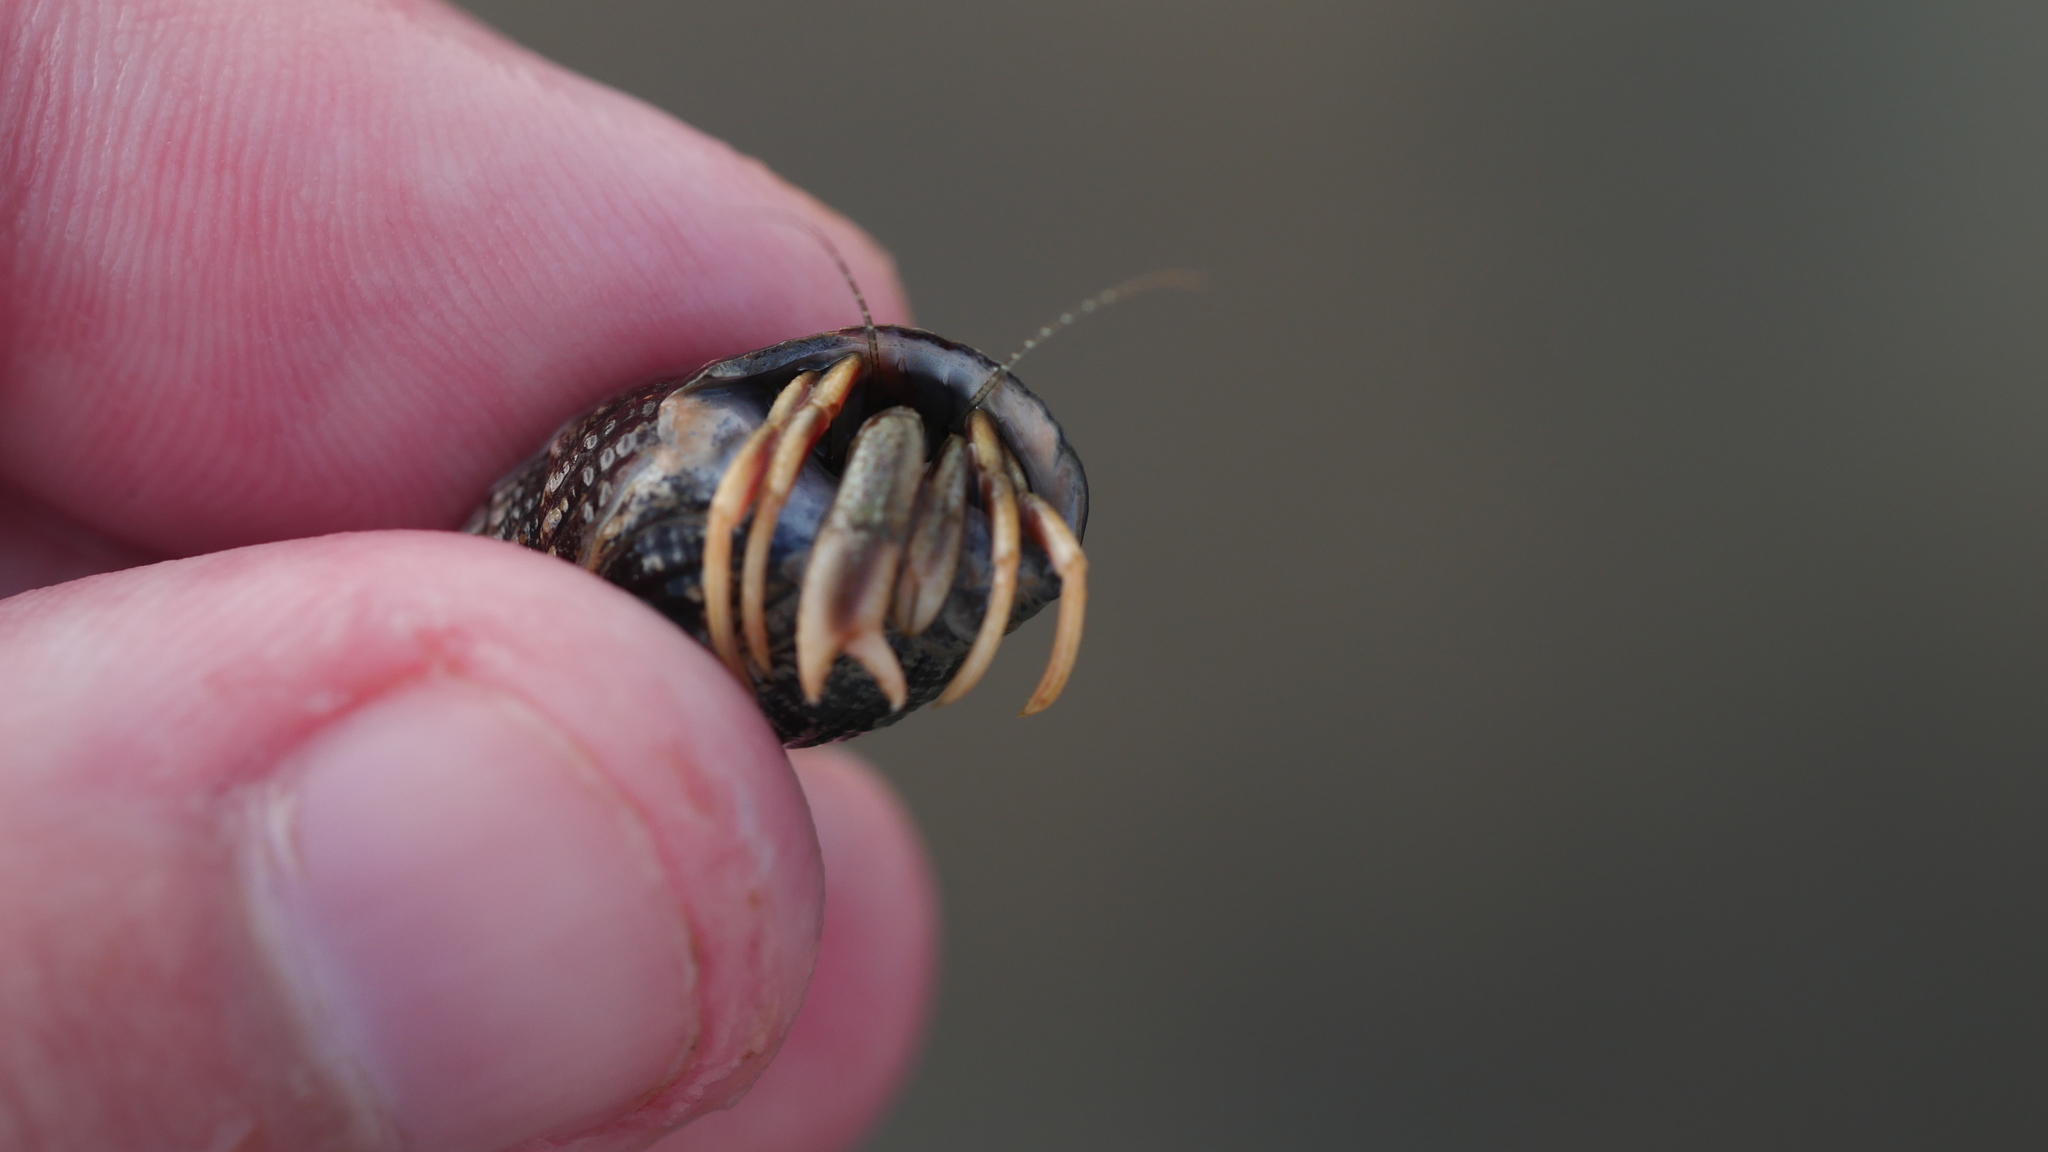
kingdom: Animalia
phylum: Arthropoda
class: Malacostraca
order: Decapoda
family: Paguridae
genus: Pagurus
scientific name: Pagurus longicarpus
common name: Long-armed hermit crab
